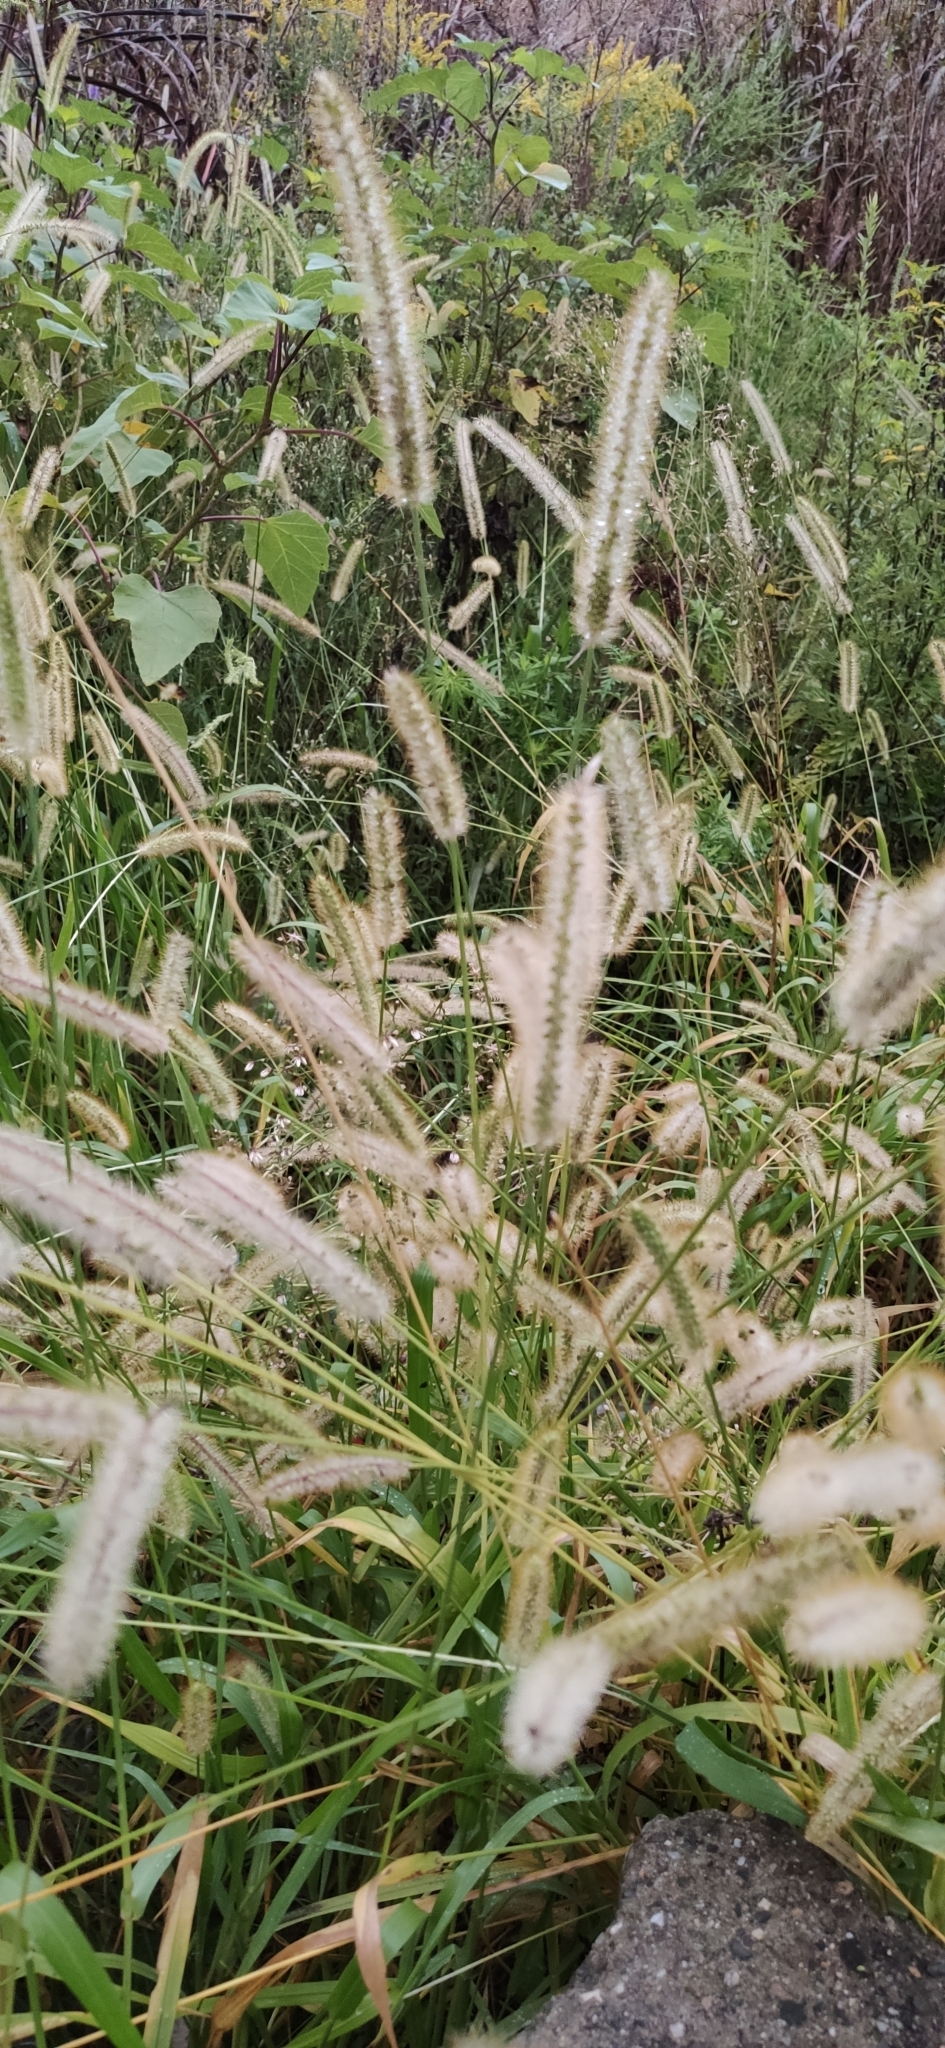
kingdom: Plantae
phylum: Tracheophyta
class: Liliopsida
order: Poales
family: Poaceae
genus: Setaria
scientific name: Setaria pumila
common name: Yellow bristle-grass
